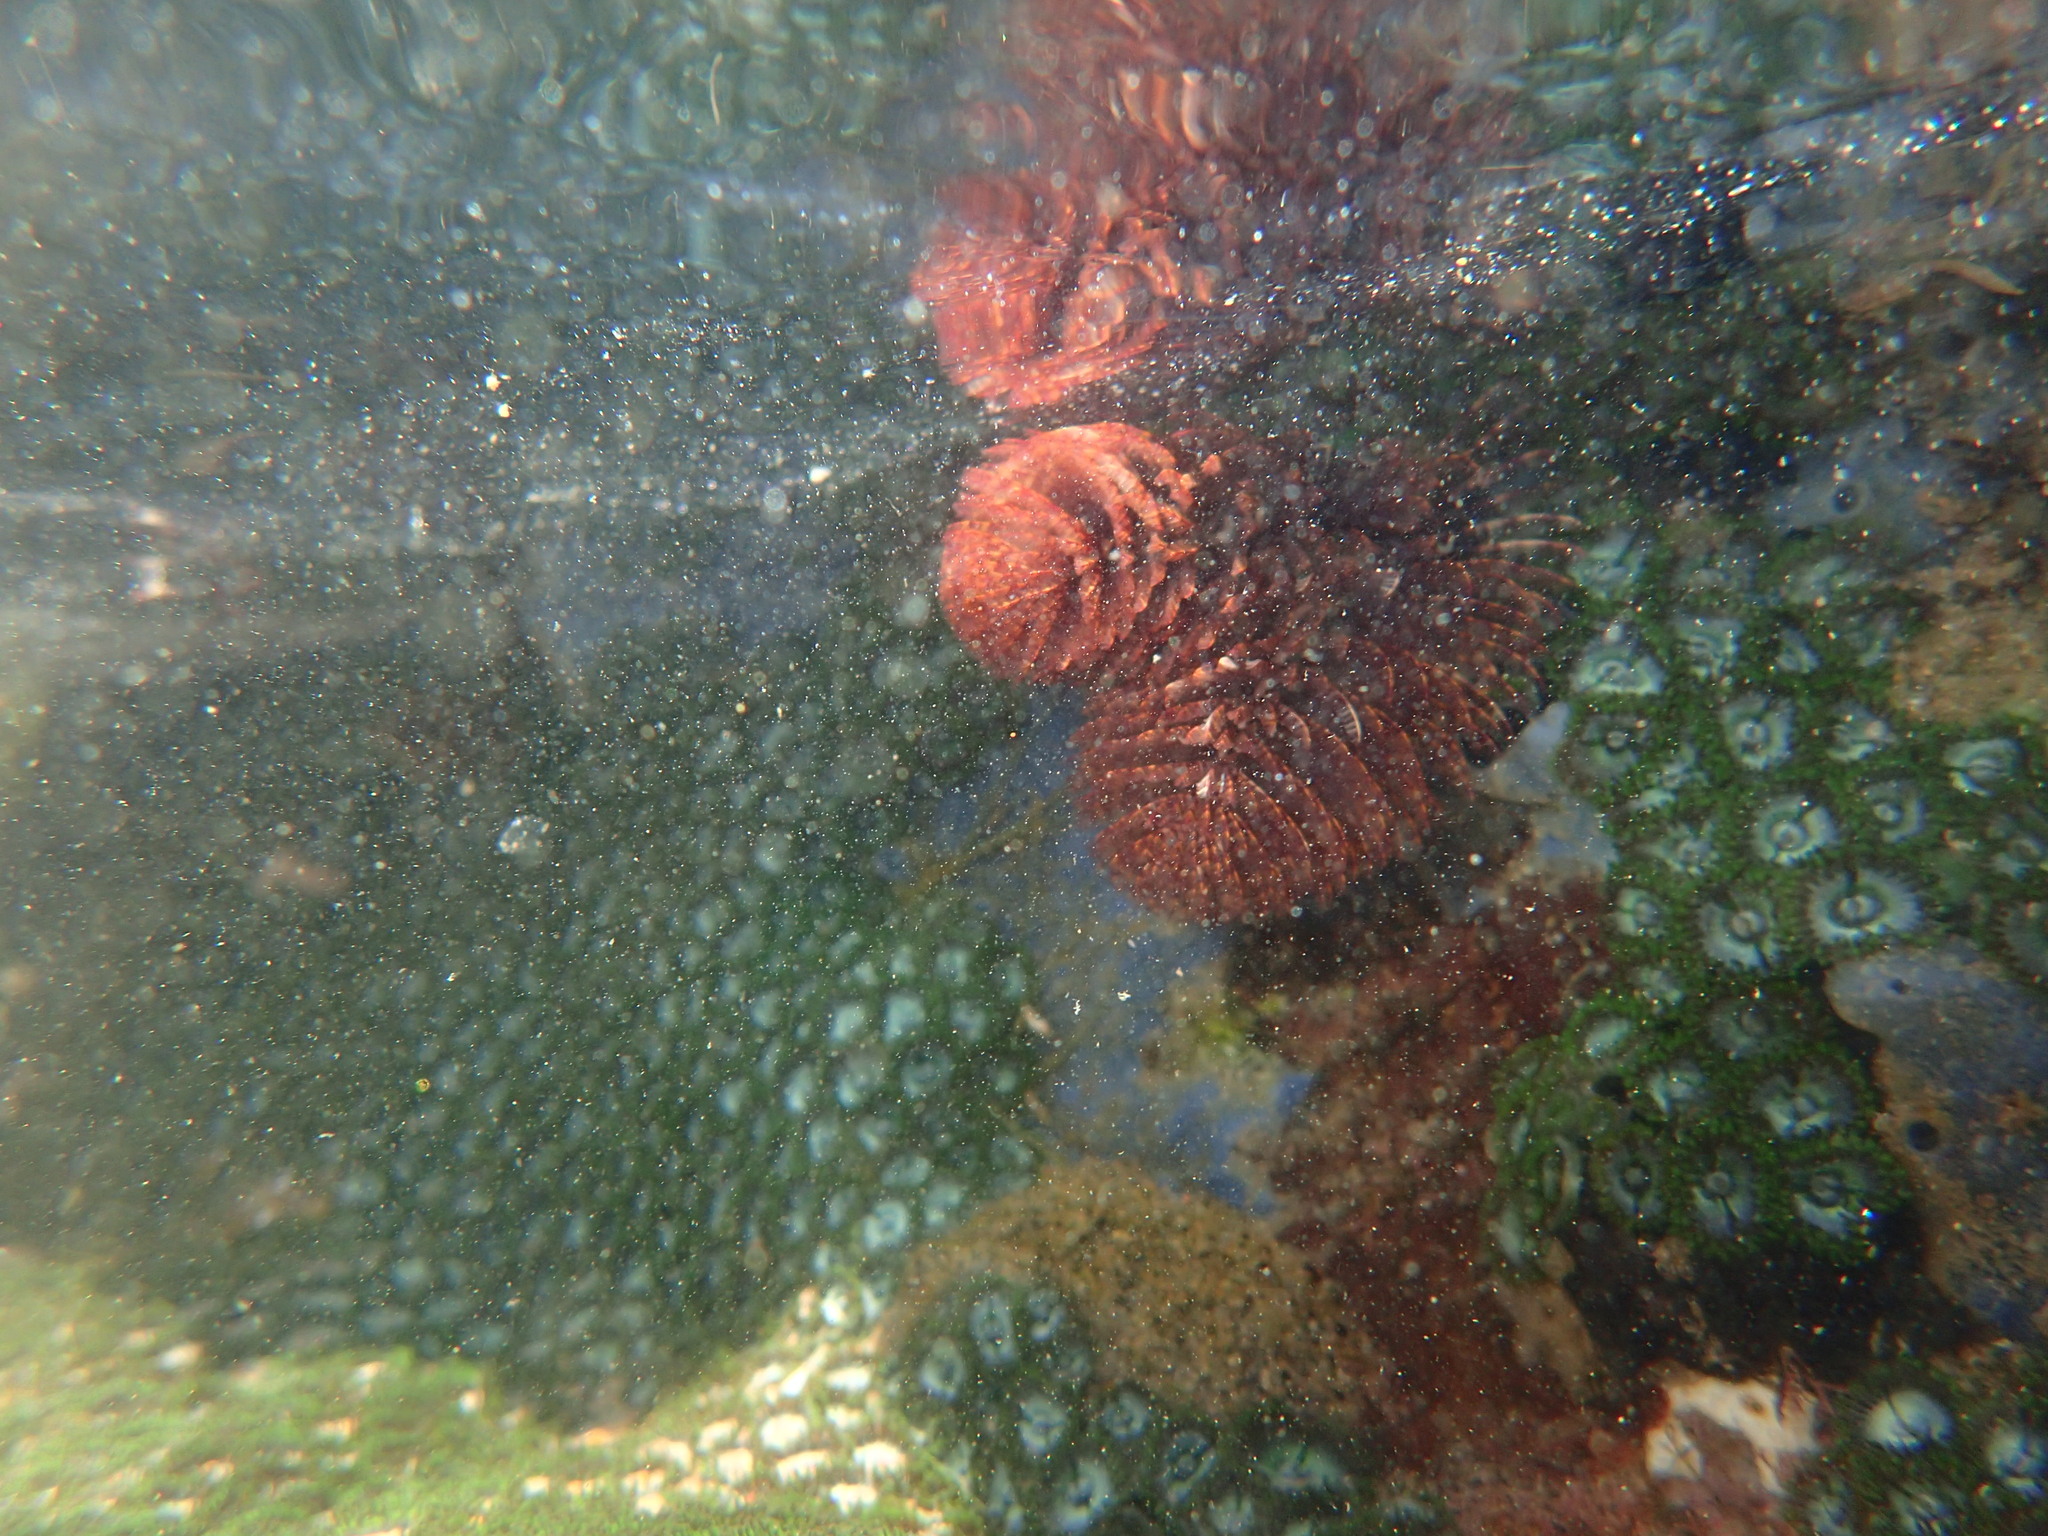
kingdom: Animalia
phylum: Annelida
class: Polychaeta
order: Sabellida
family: Sabellidae
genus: Pseudobranchiomma
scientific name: Pseudobranchiomma longa
